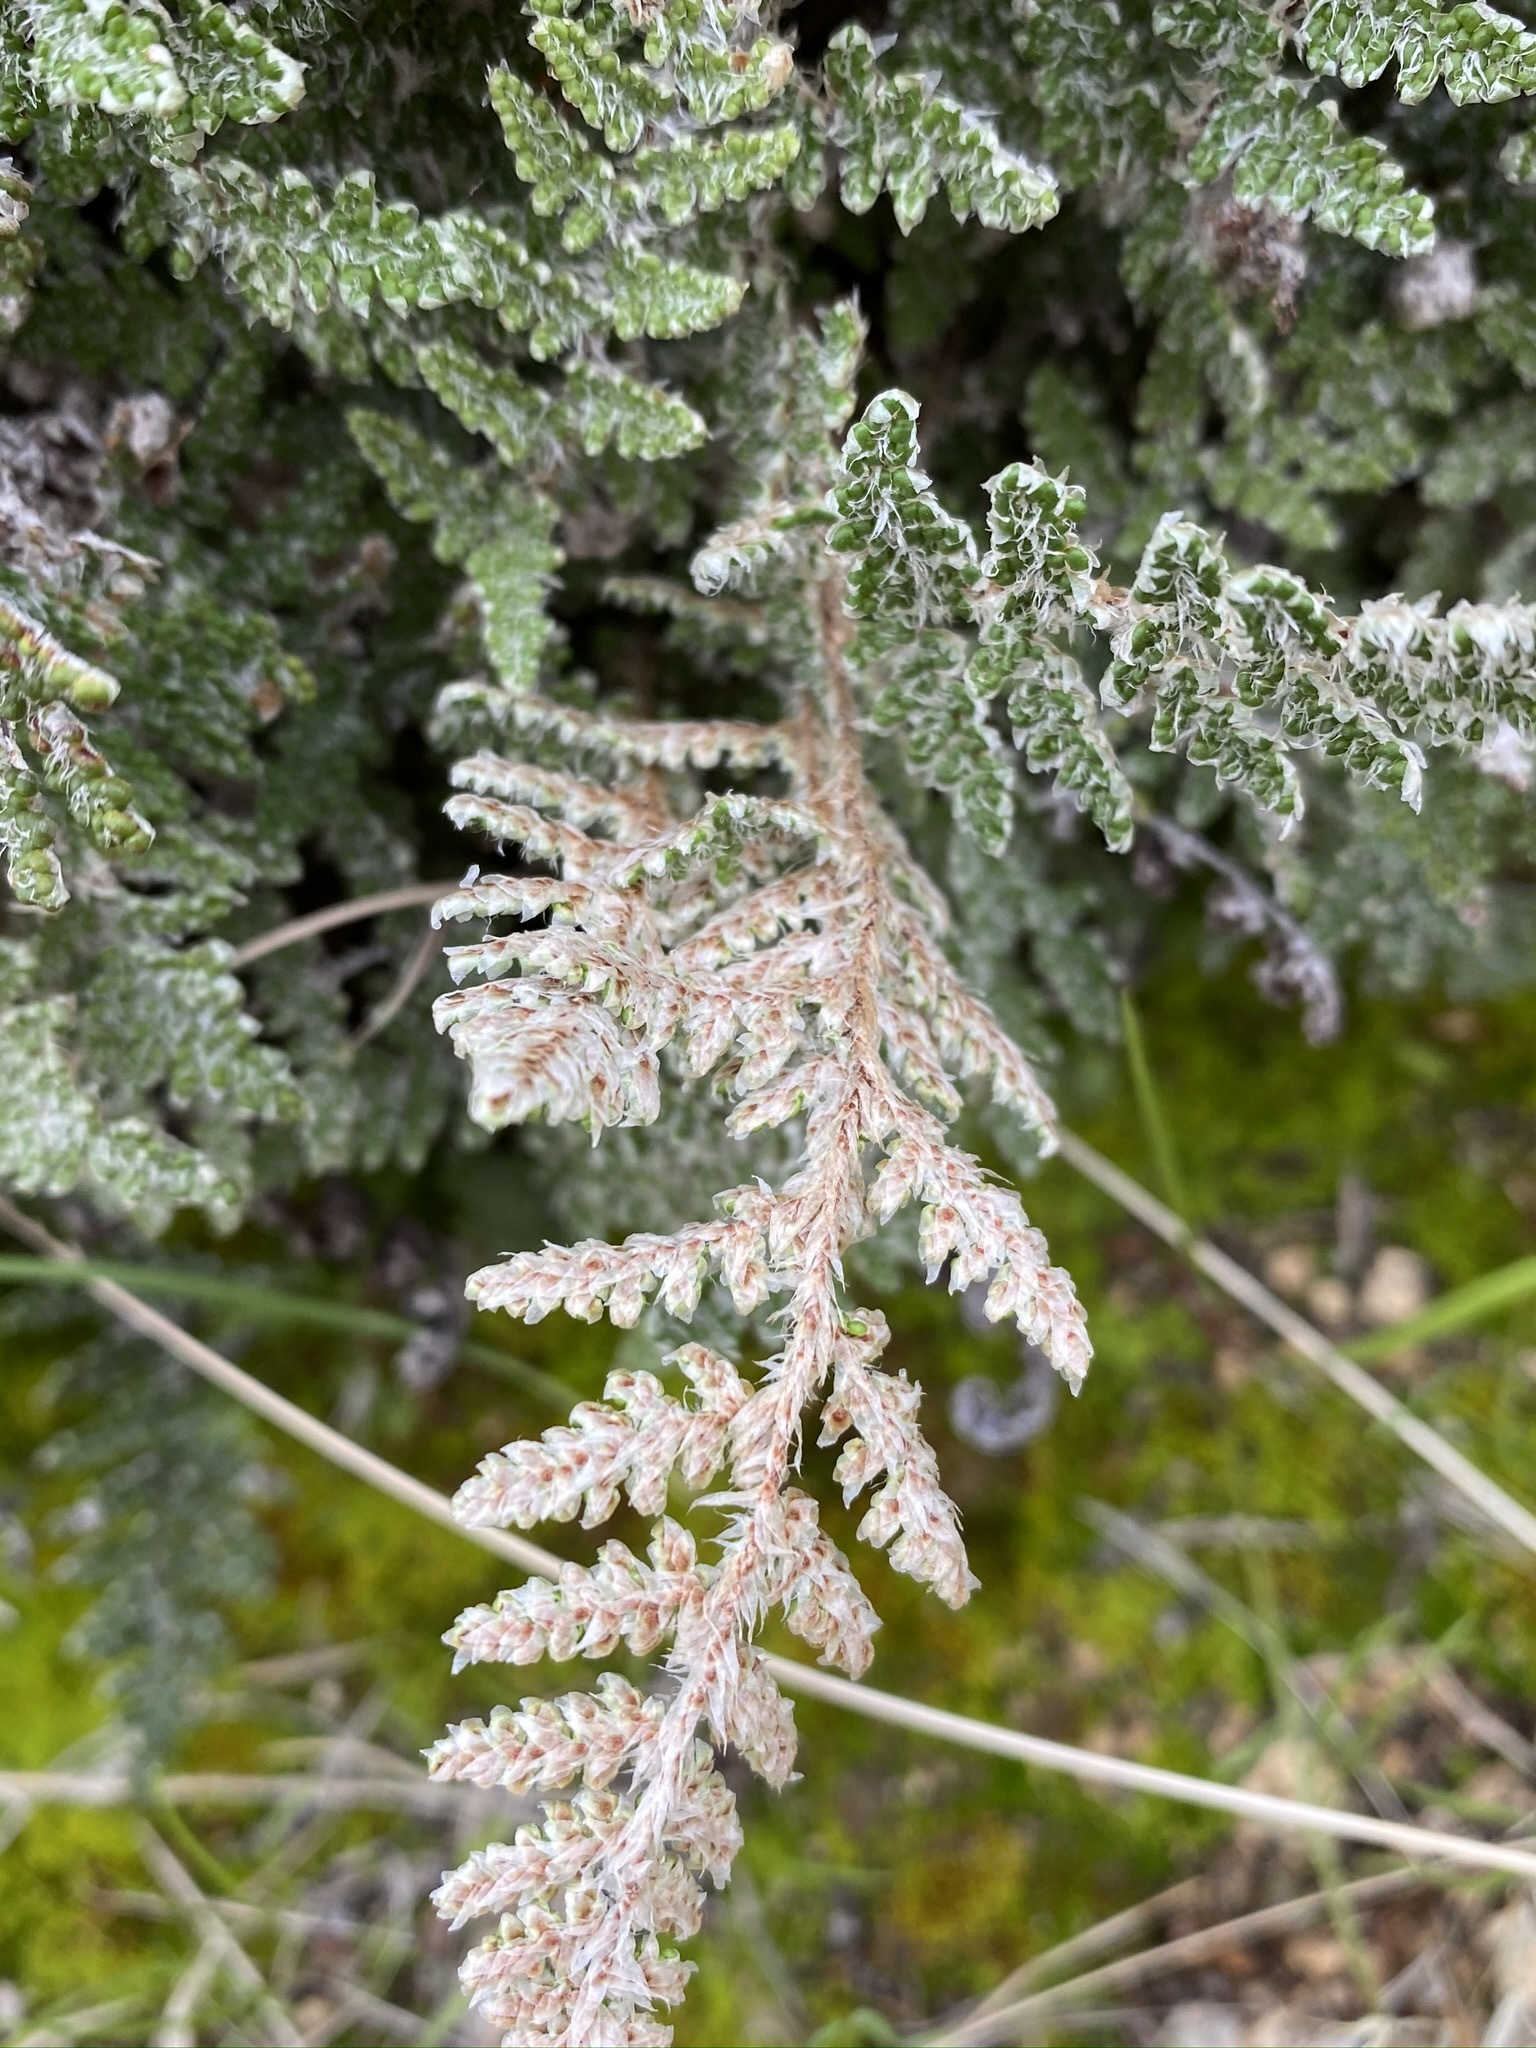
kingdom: Plantae
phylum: Tracheophyta
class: Polypodiopsida
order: Polypodiales
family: Pteridaceae
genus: Myriopteris
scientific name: Myriopteris covillei
